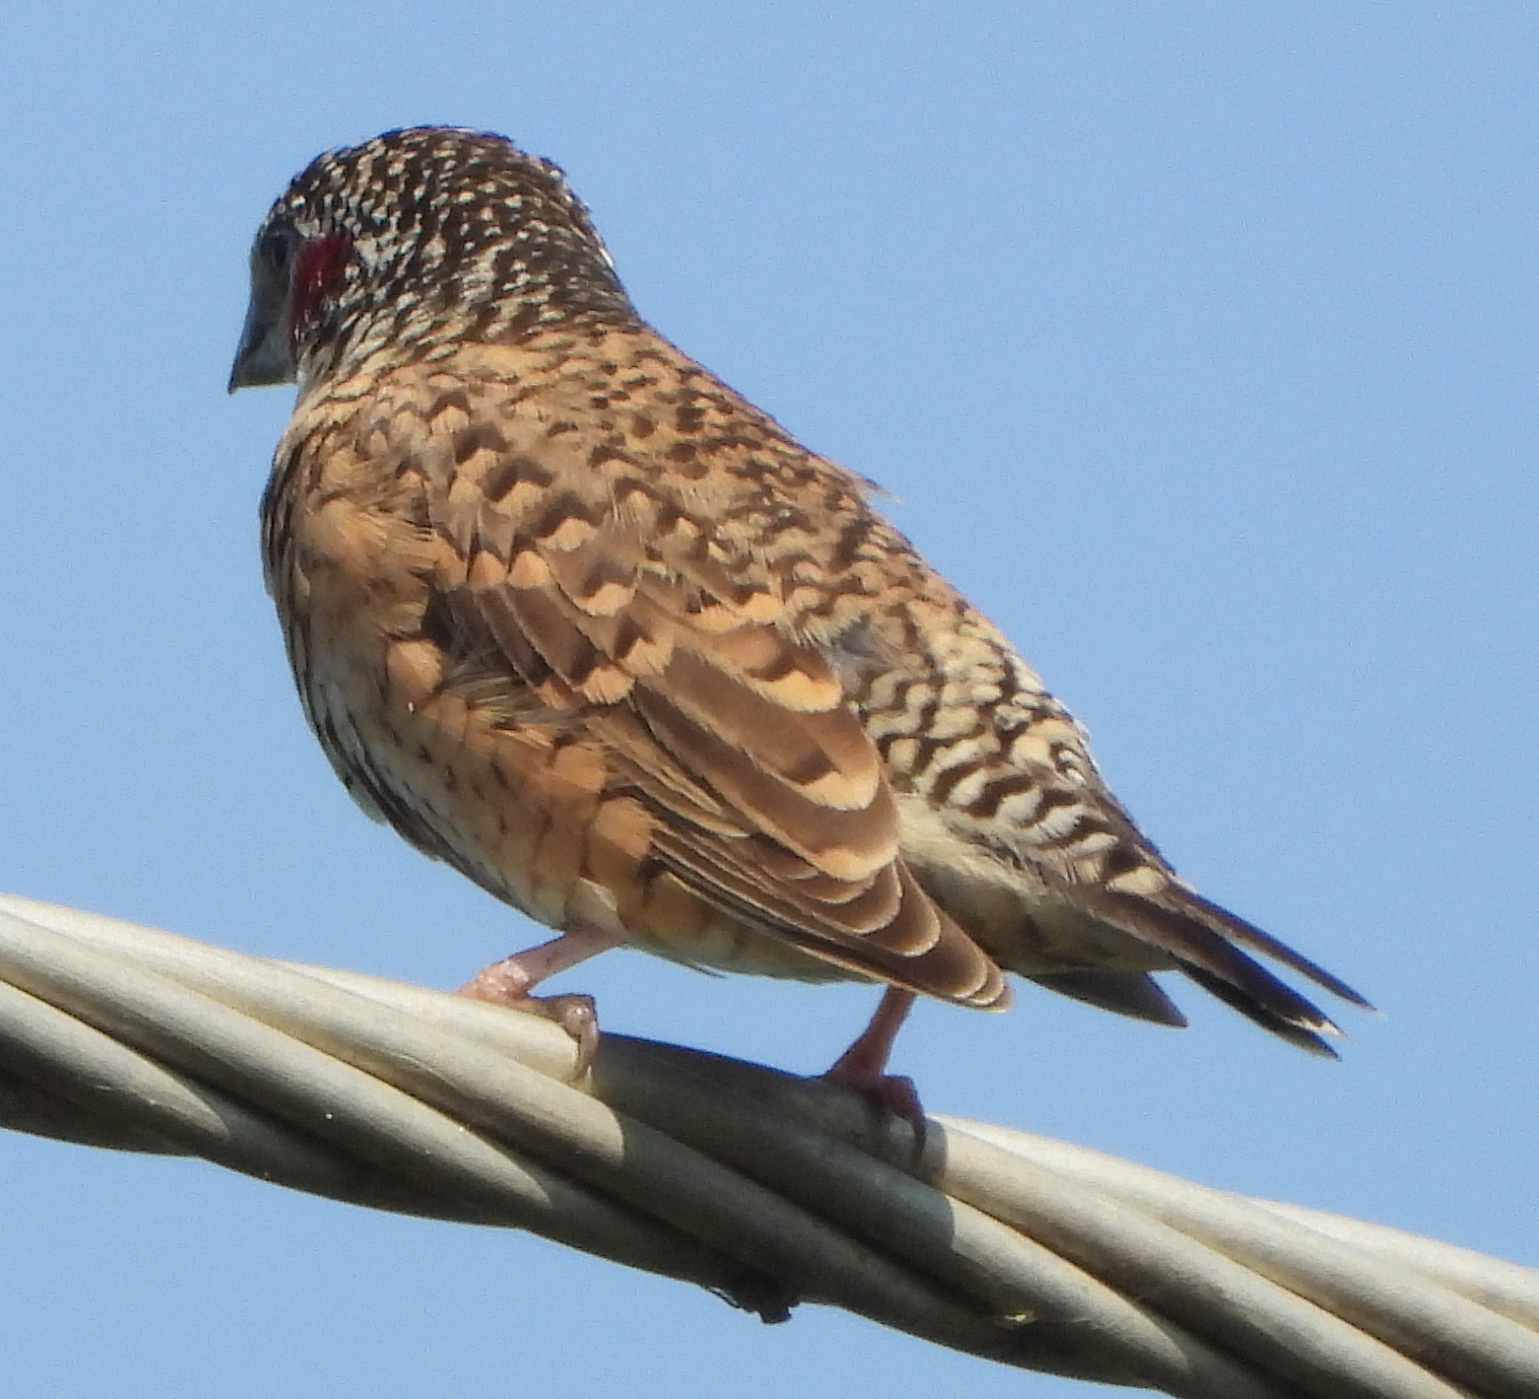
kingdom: Animalia
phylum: Chordata
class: Aves
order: Passeriformes
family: Estrildidae
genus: Amadina
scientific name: Amadina fasciata
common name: Cut-throat finch
